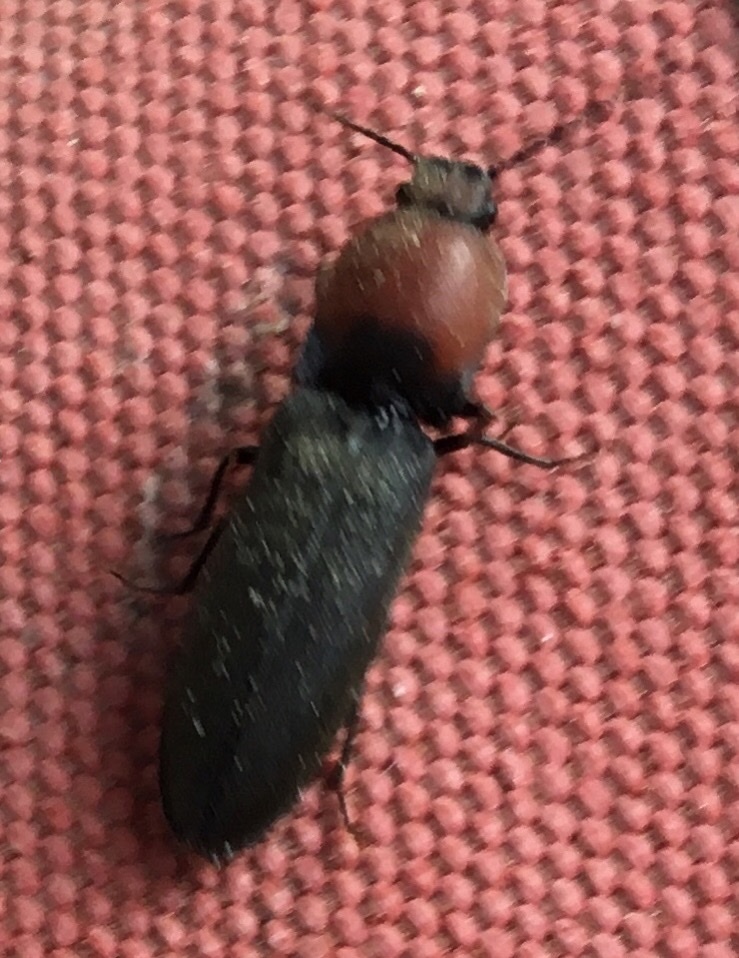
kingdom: Animalia
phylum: Arthropoda
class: Insecta
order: Coleoptera
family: Elateridae
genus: Athous
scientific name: Athous equestris
